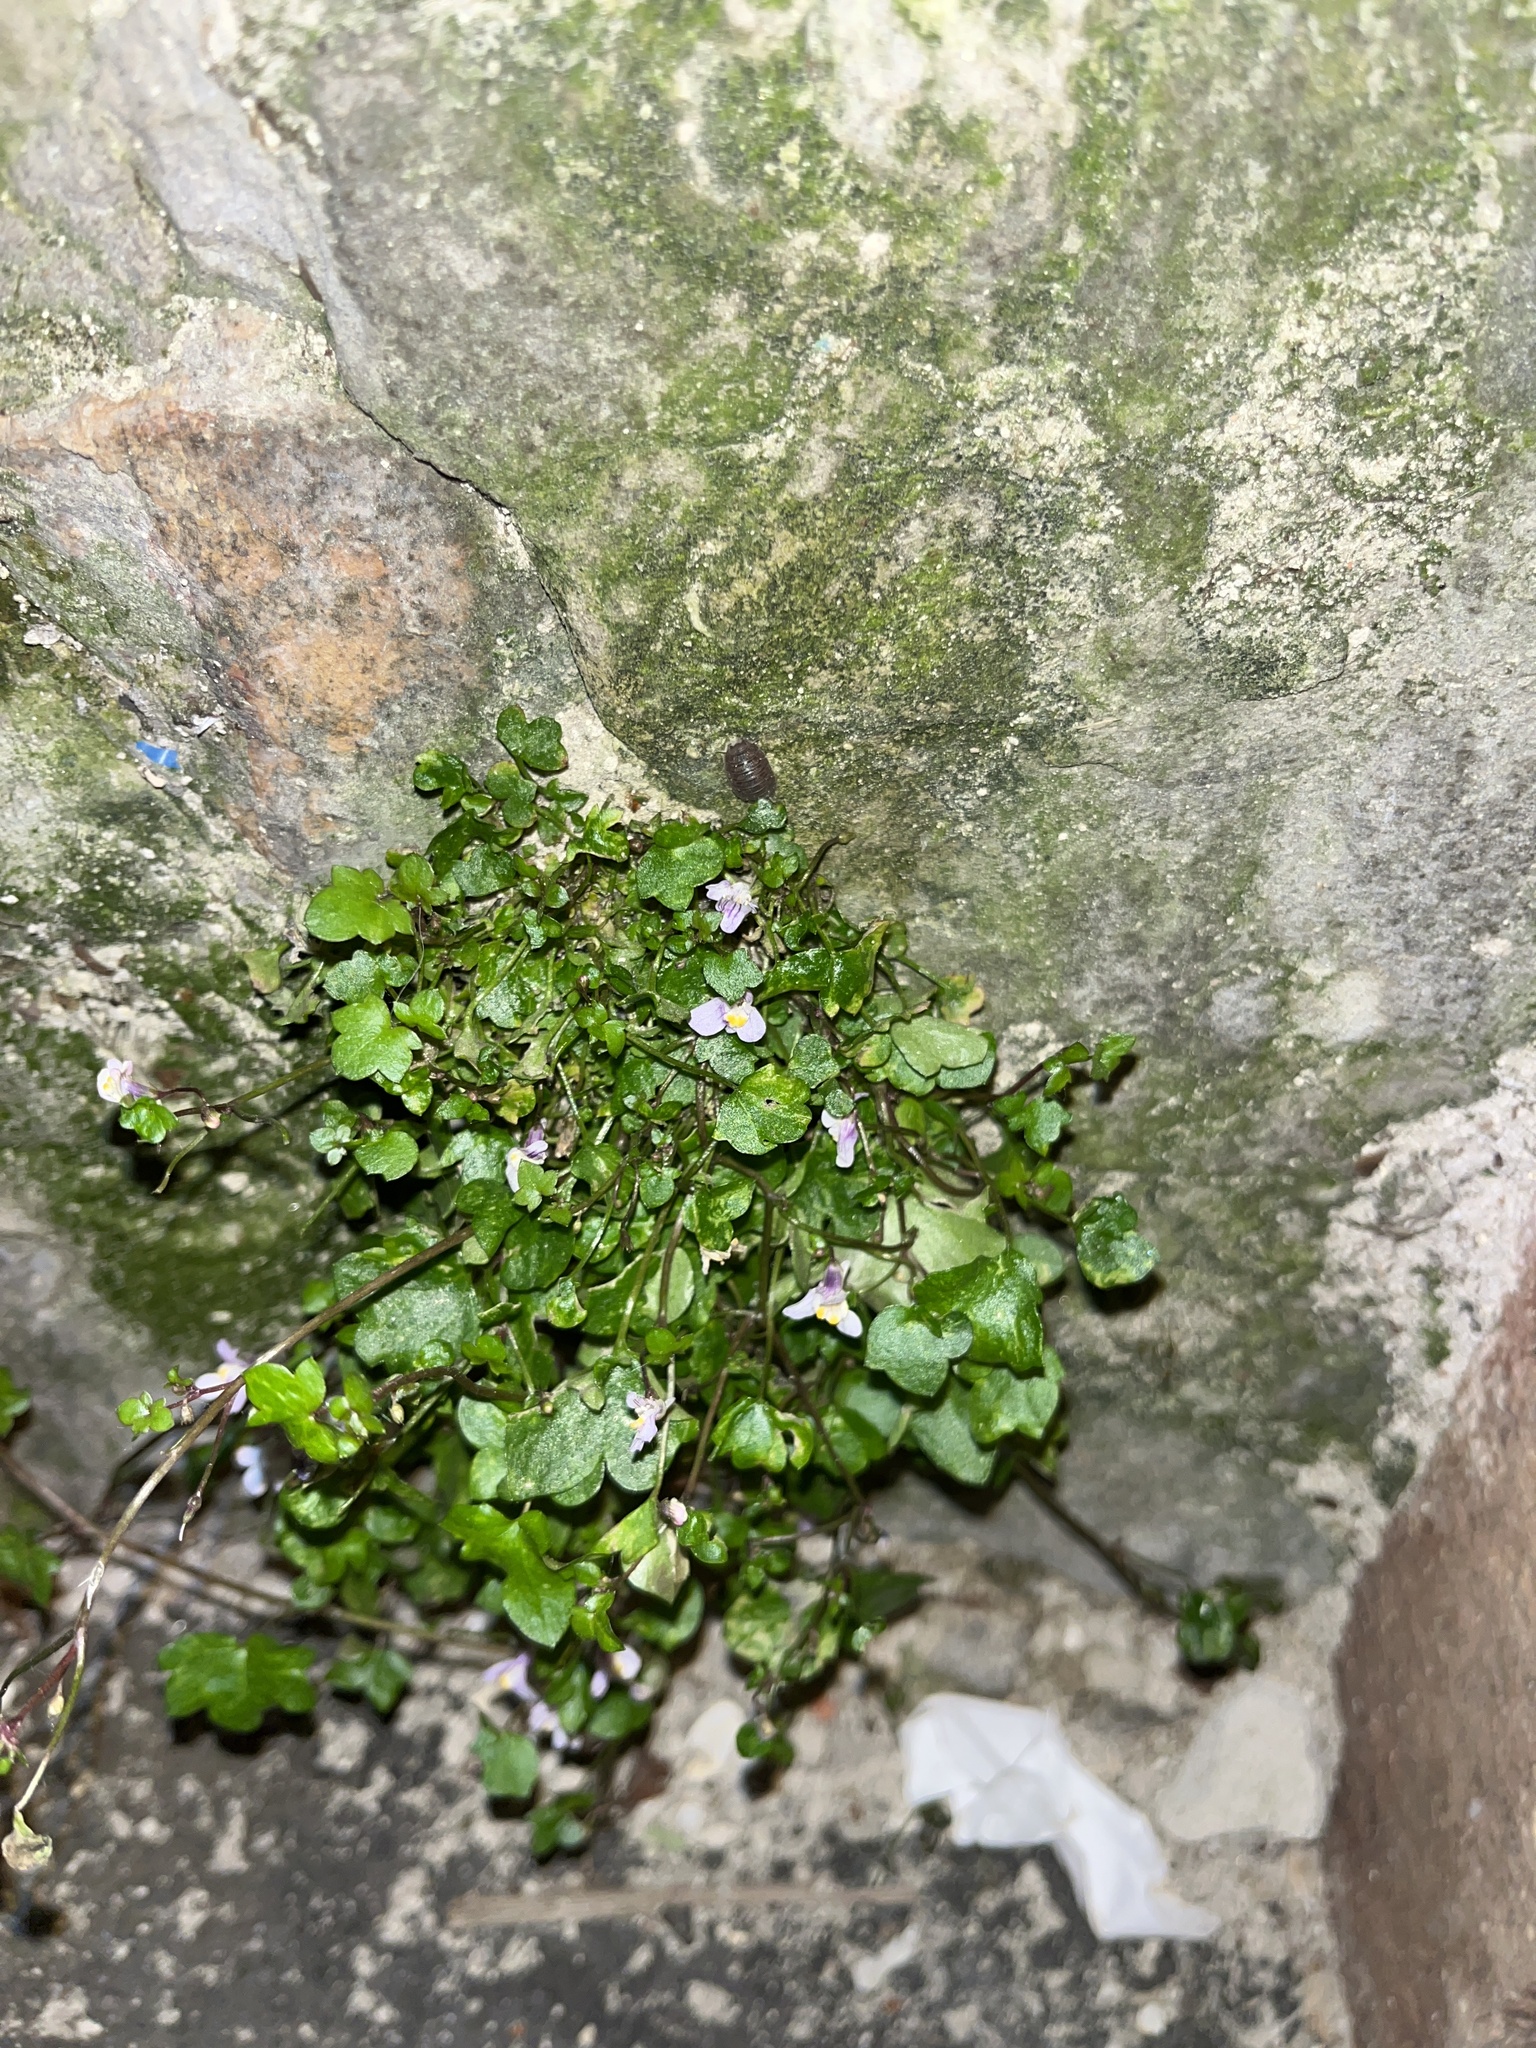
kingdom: Plantae
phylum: Tracheophyta
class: Magnoliopsida
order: Lamiales
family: Plantaginaceae
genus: Cymbalaria
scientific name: Cymbalaria muralis
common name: Ivy-leaved toadflax
